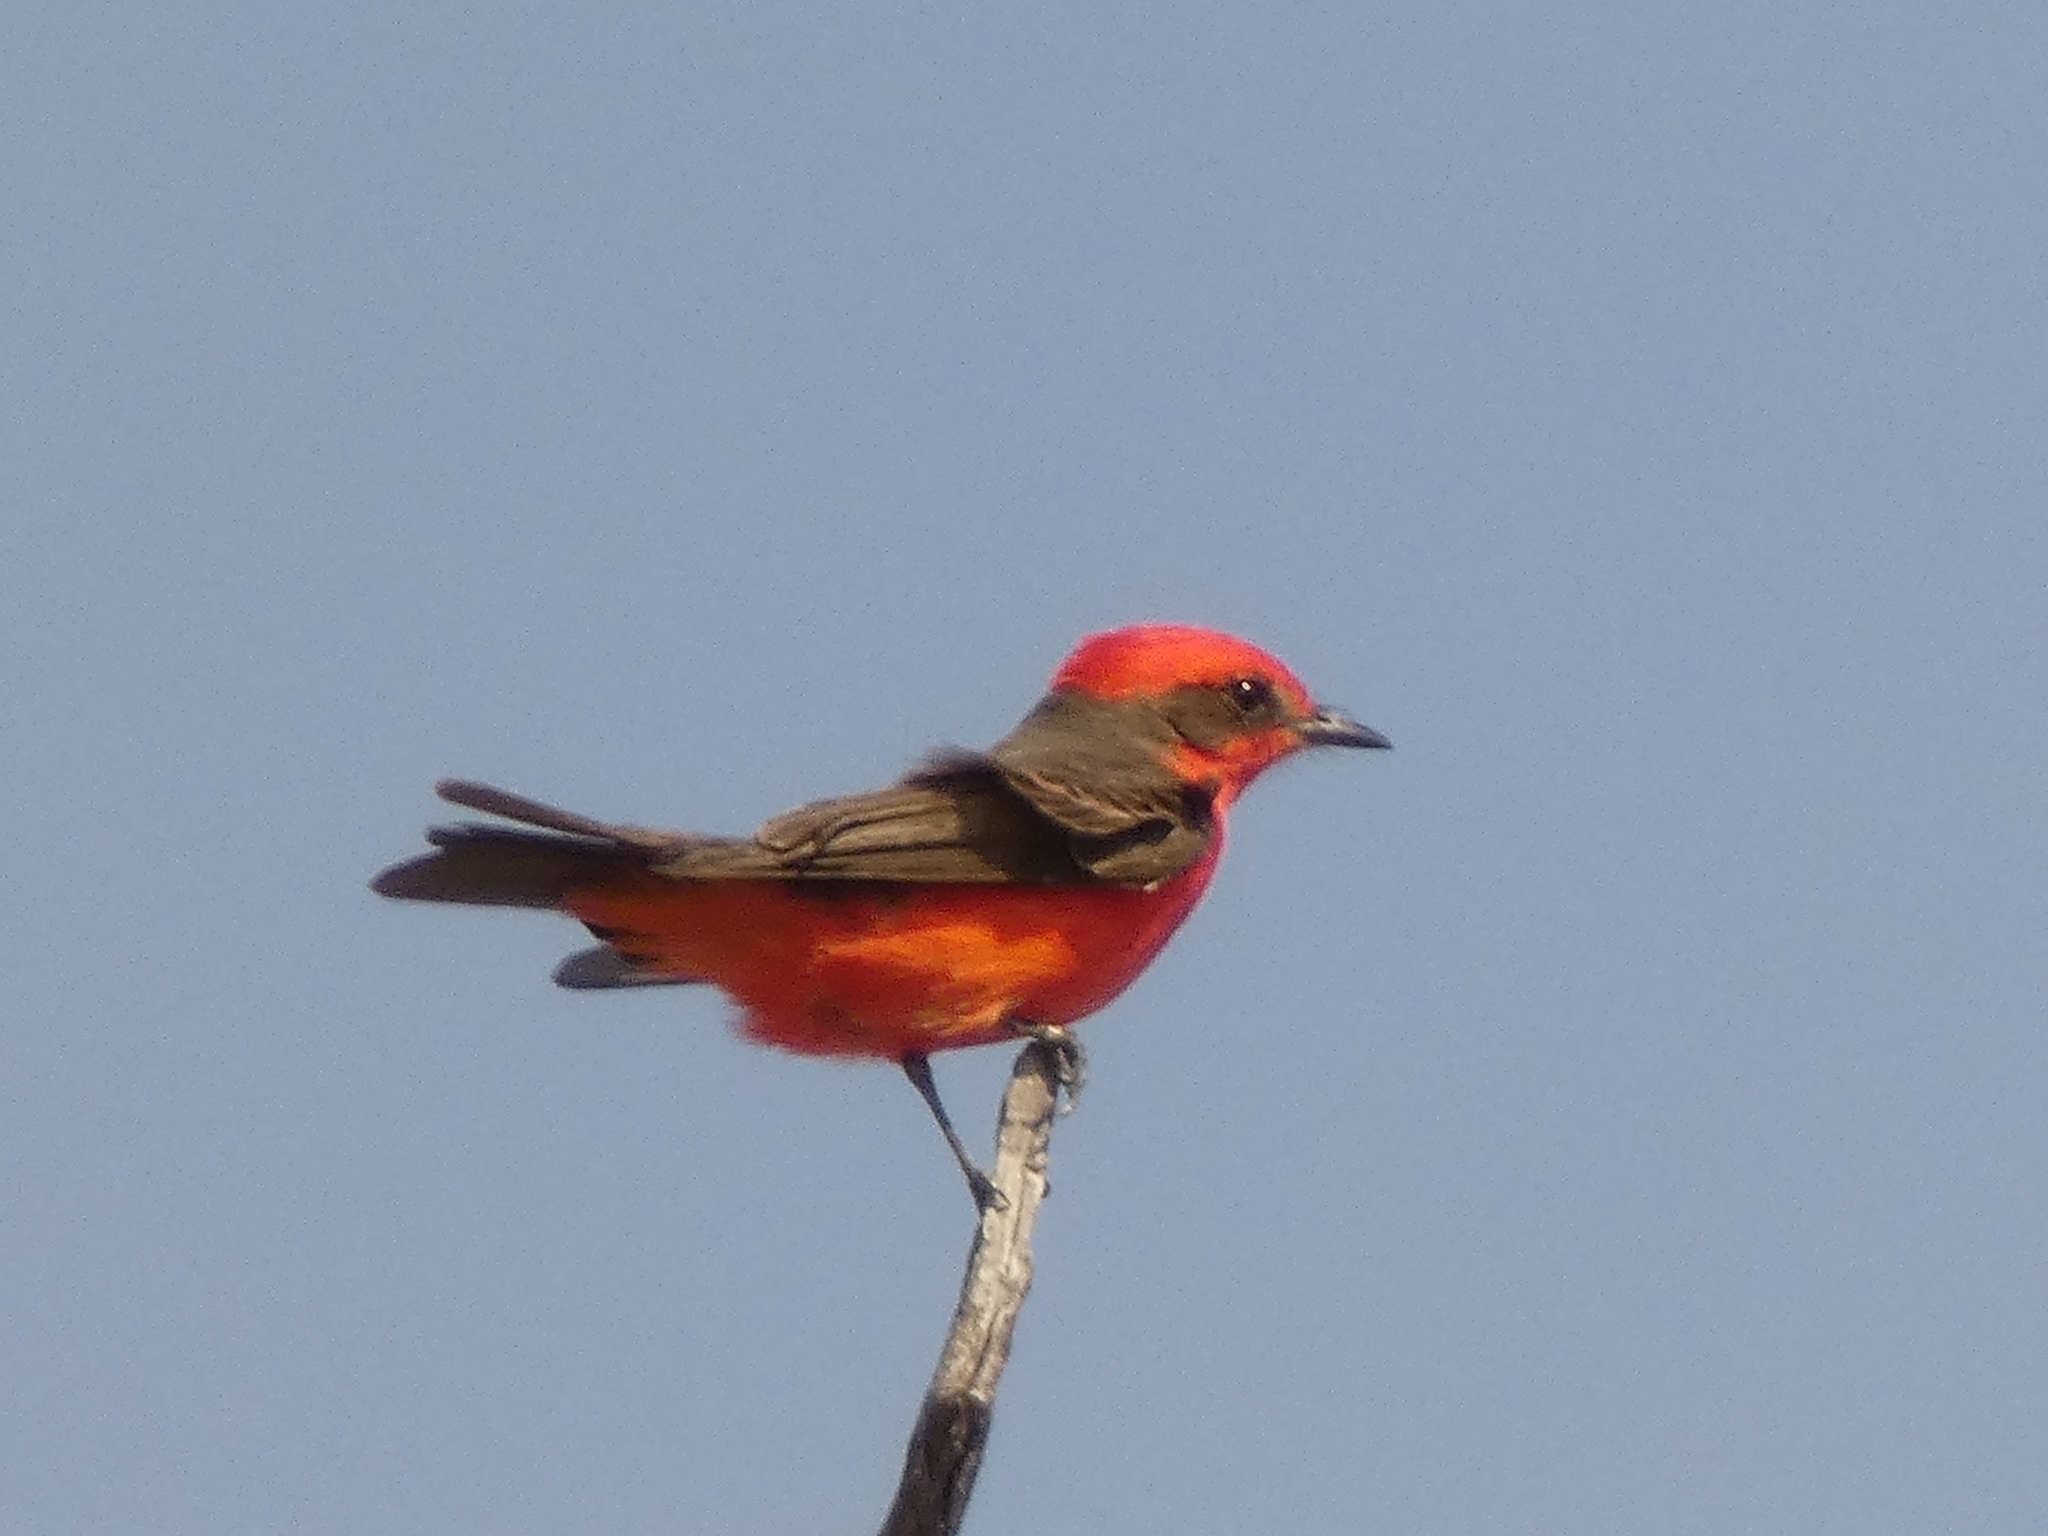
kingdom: Animalia
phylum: Chordata
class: Aves
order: Passeriformes
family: Tyrannidae
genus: Pyrocephalus
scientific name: Pyrocephalus rubinus
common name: Vermilion flycatcher
